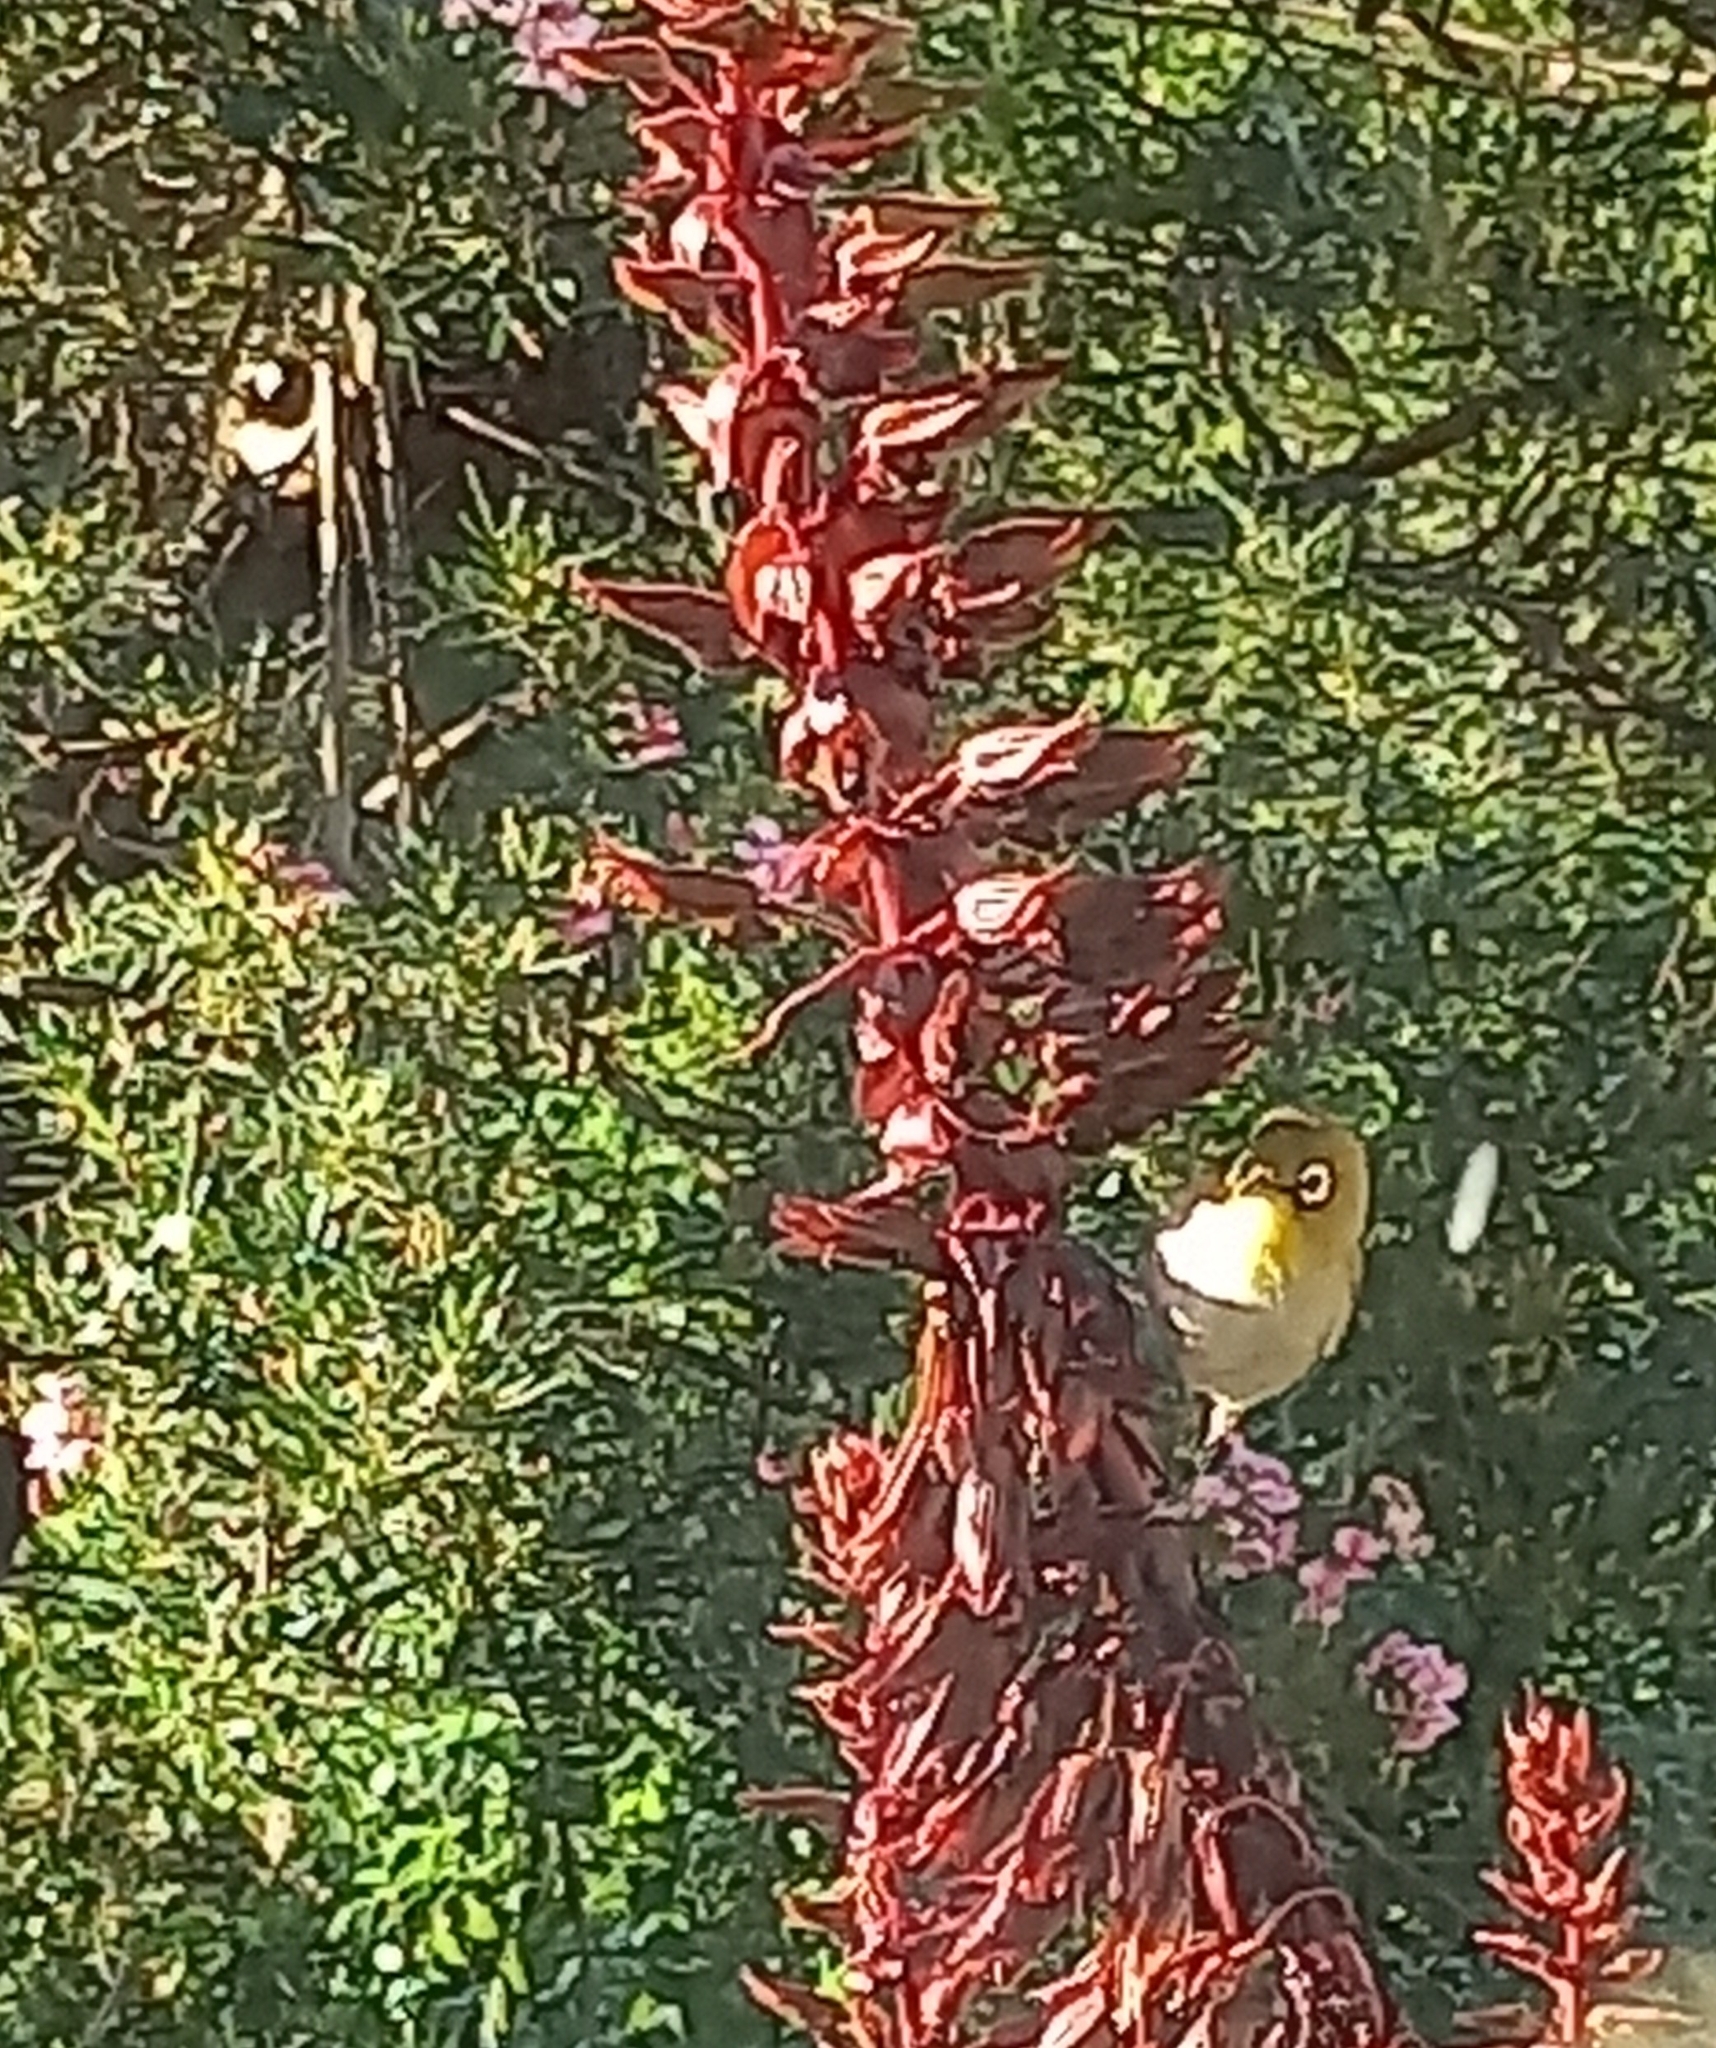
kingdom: Animalia
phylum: Chordata
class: Aves
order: Passeriformes
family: Zosteropidae
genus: Zosterops
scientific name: Zosterops virens
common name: Cape white-eye
